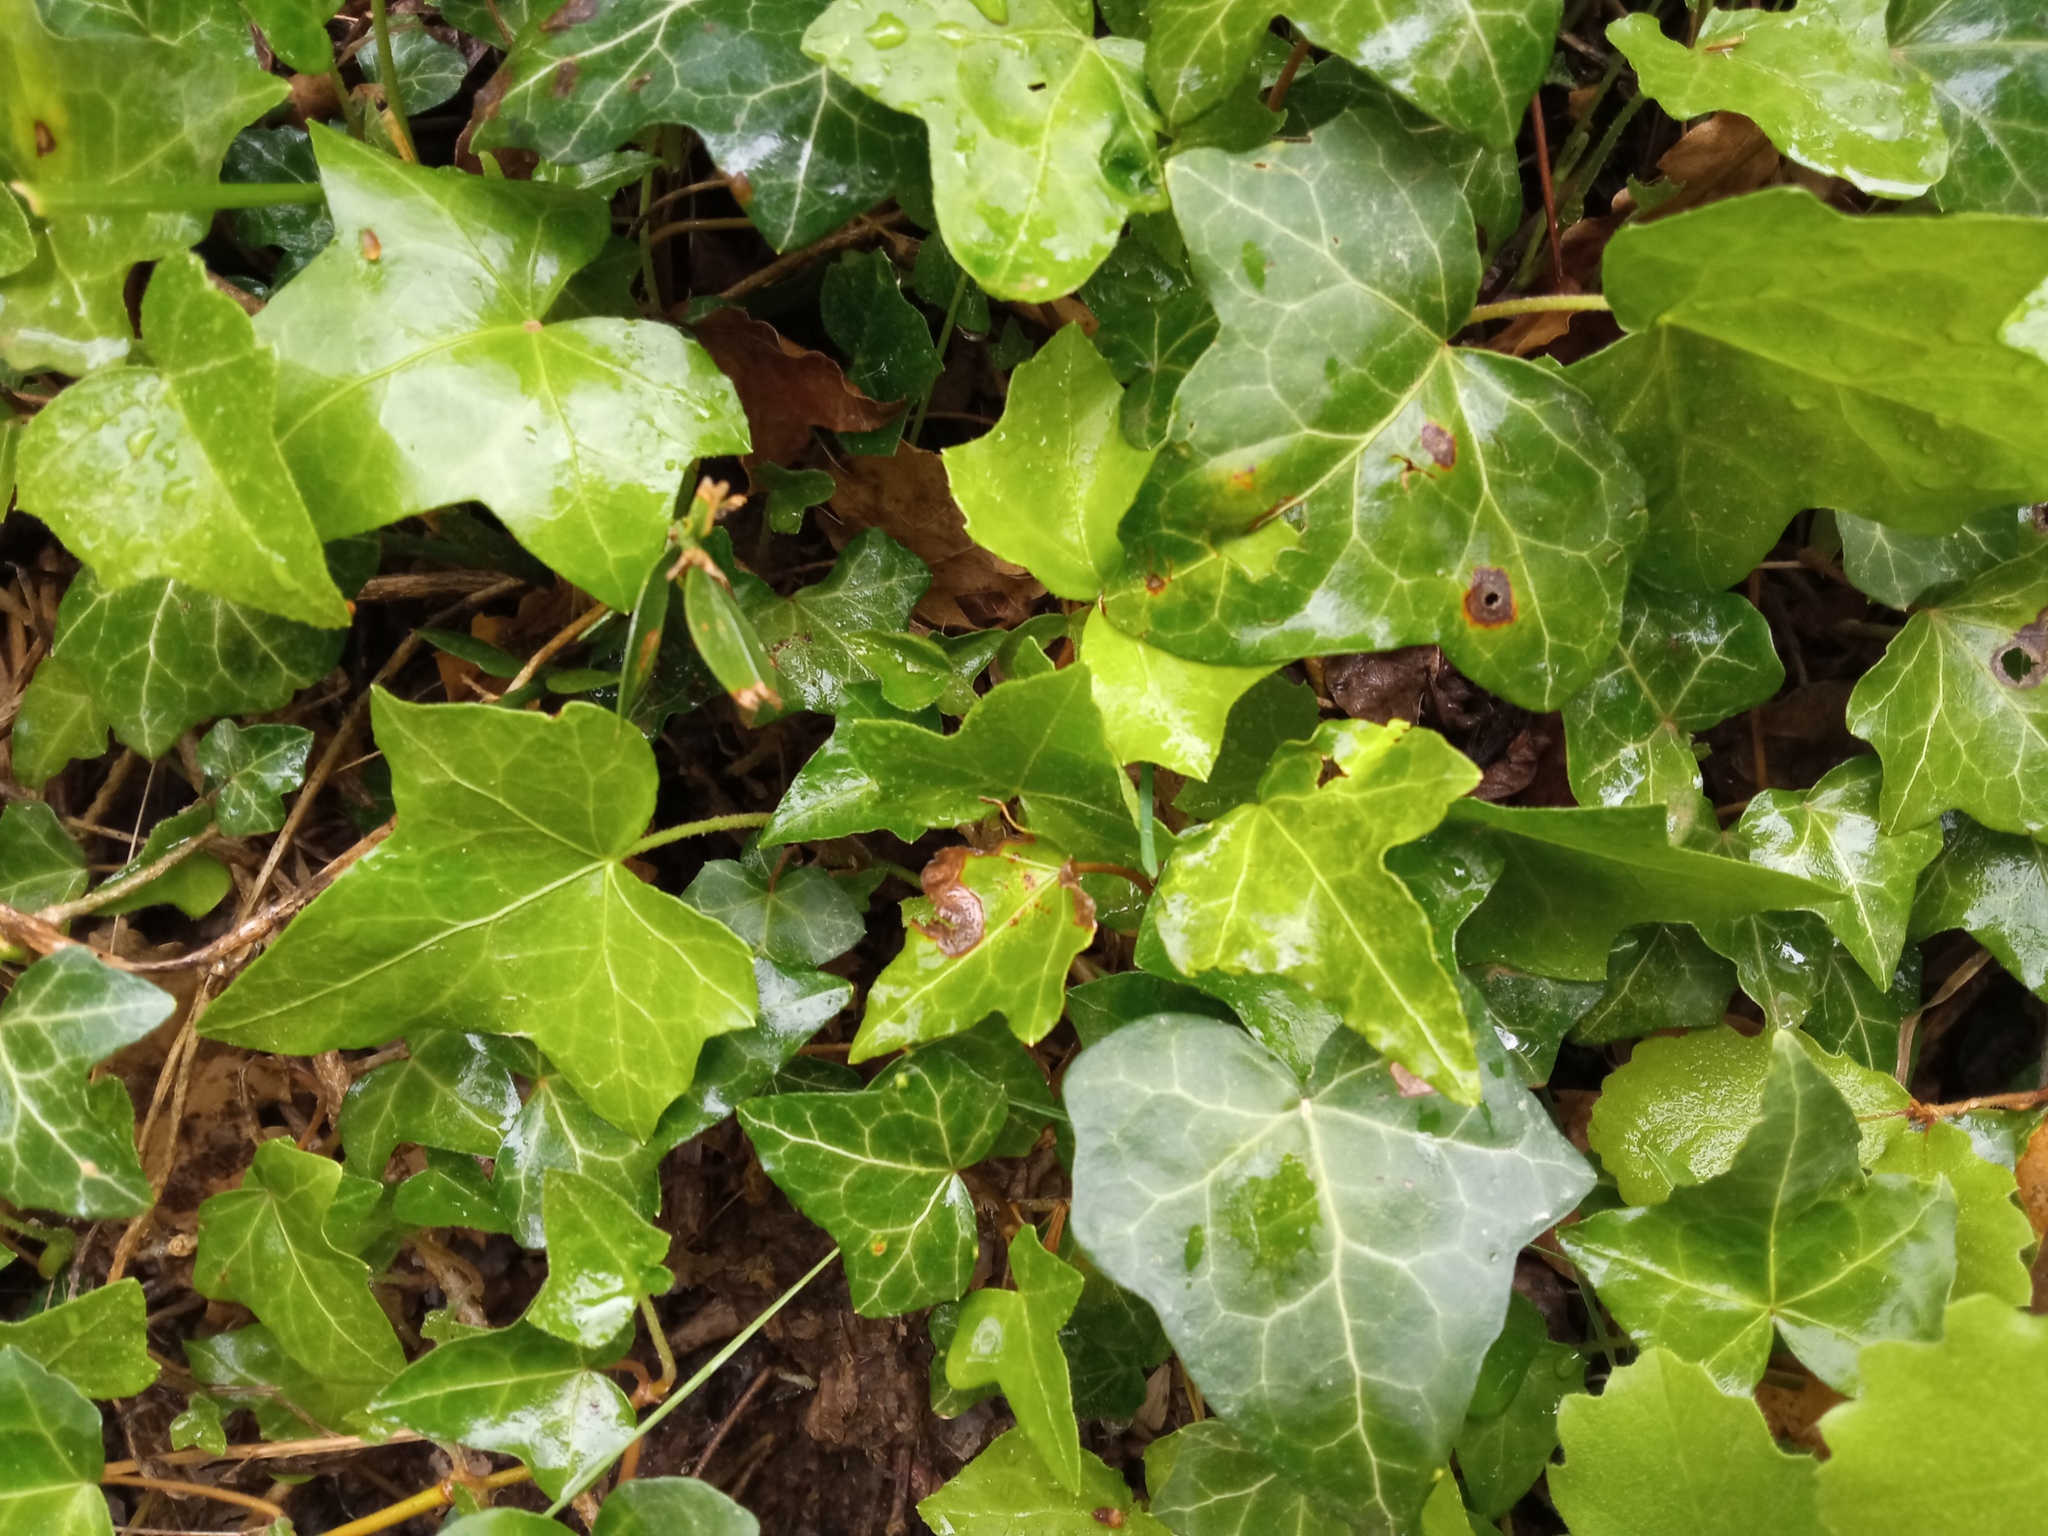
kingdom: Plantae
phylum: Tracheophyta
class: Magnoliopsida
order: Apiales
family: Araliaceae
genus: Hedera
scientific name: Hedera helix
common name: Ivy
